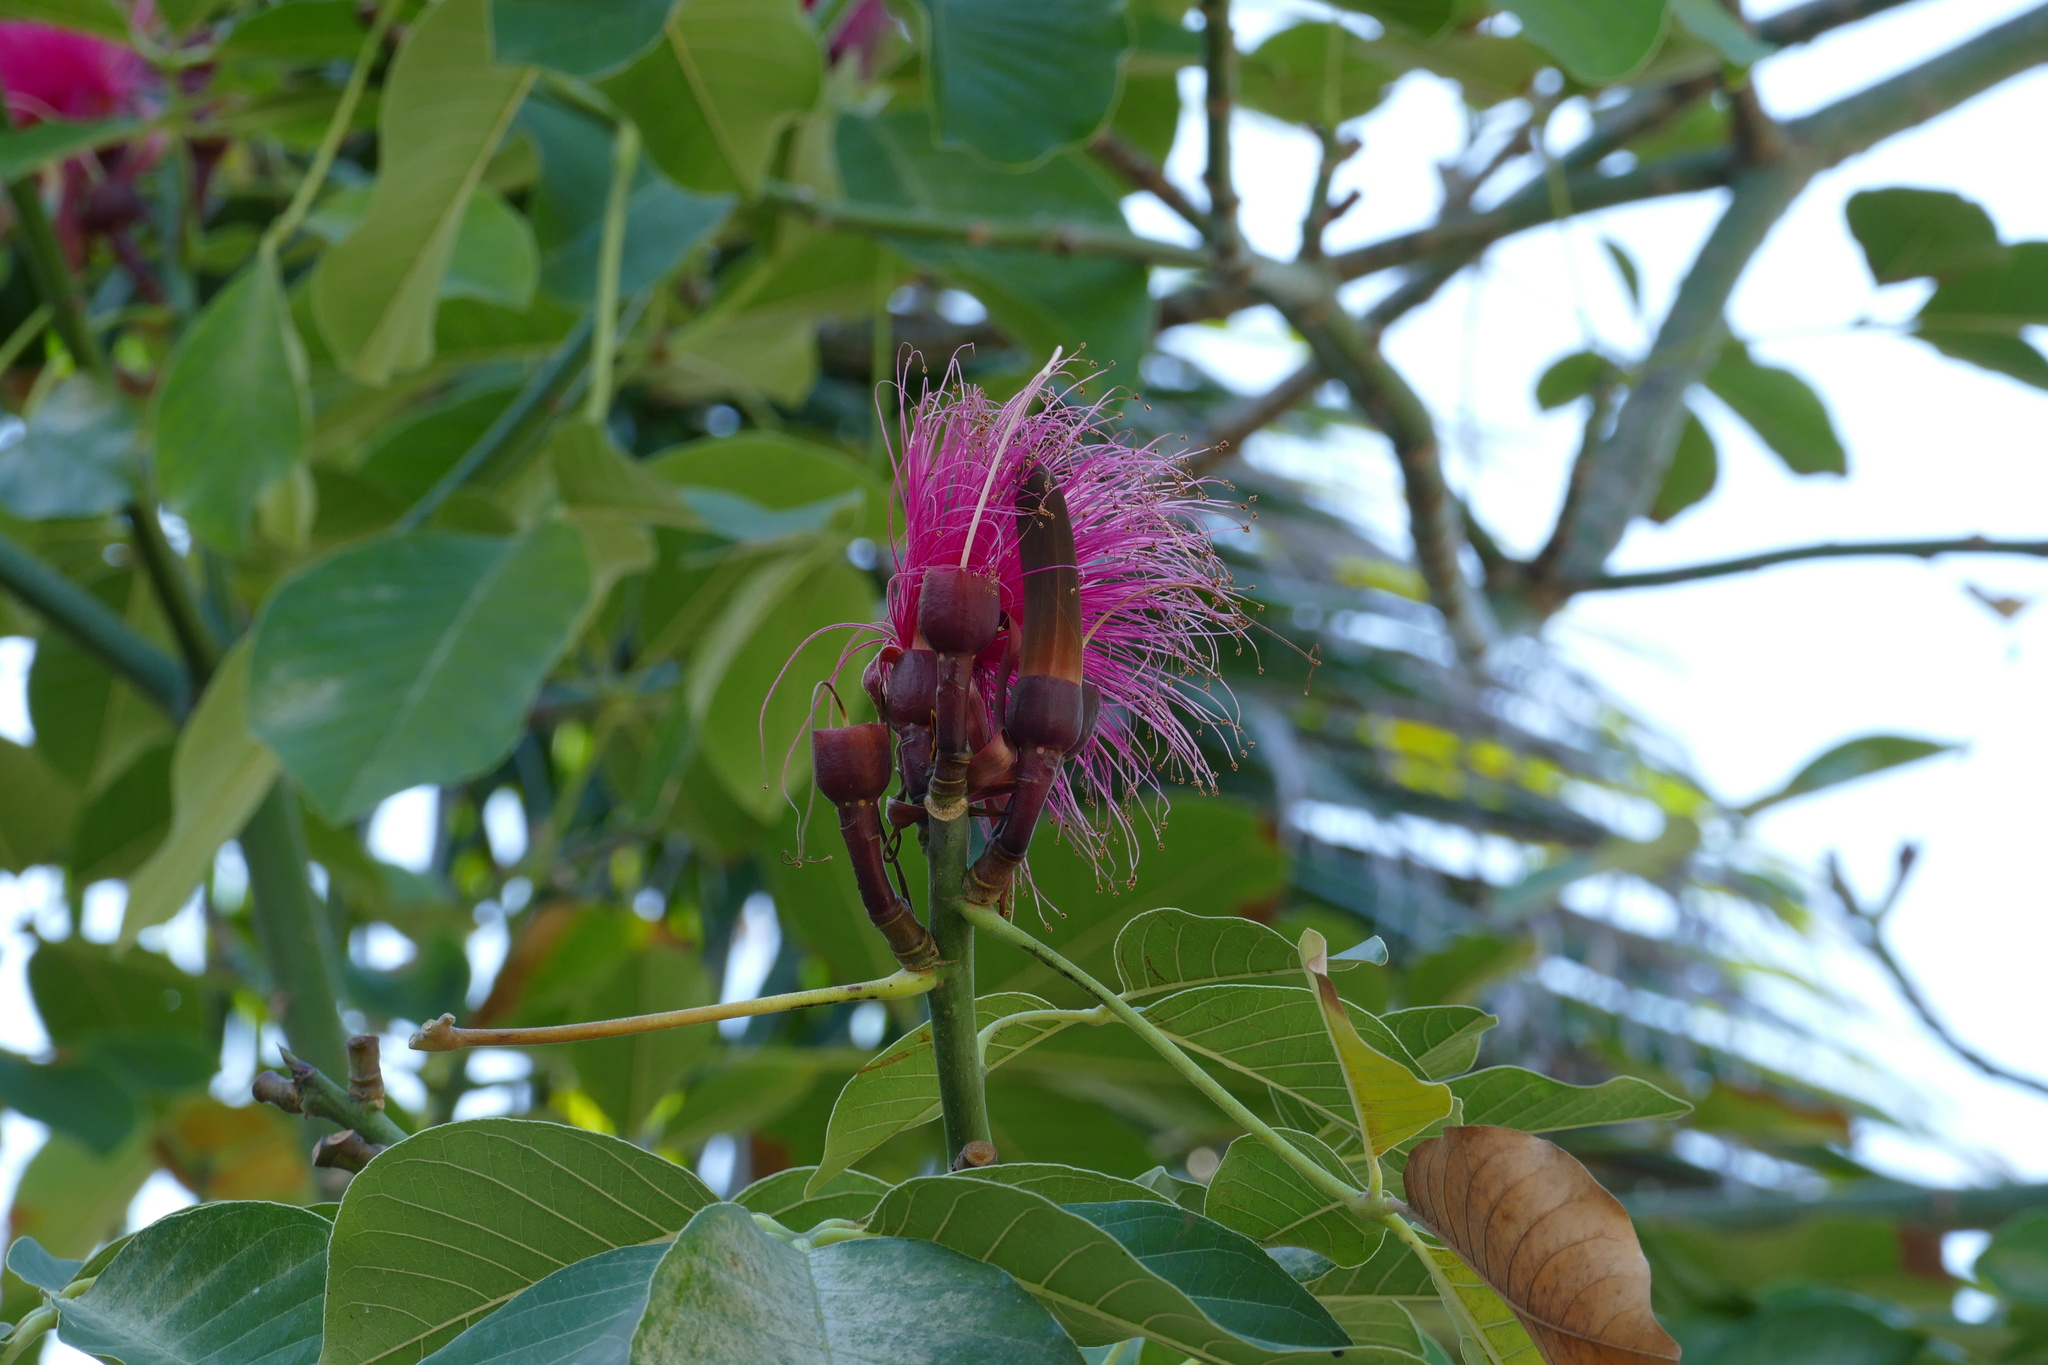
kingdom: Plantae
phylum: Tracheophyta
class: Magnoliopsida
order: Malvales
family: Malvaceae
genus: Pseudobombax
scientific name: Pseudobombax ellipticum
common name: Shaving-brush-tree
